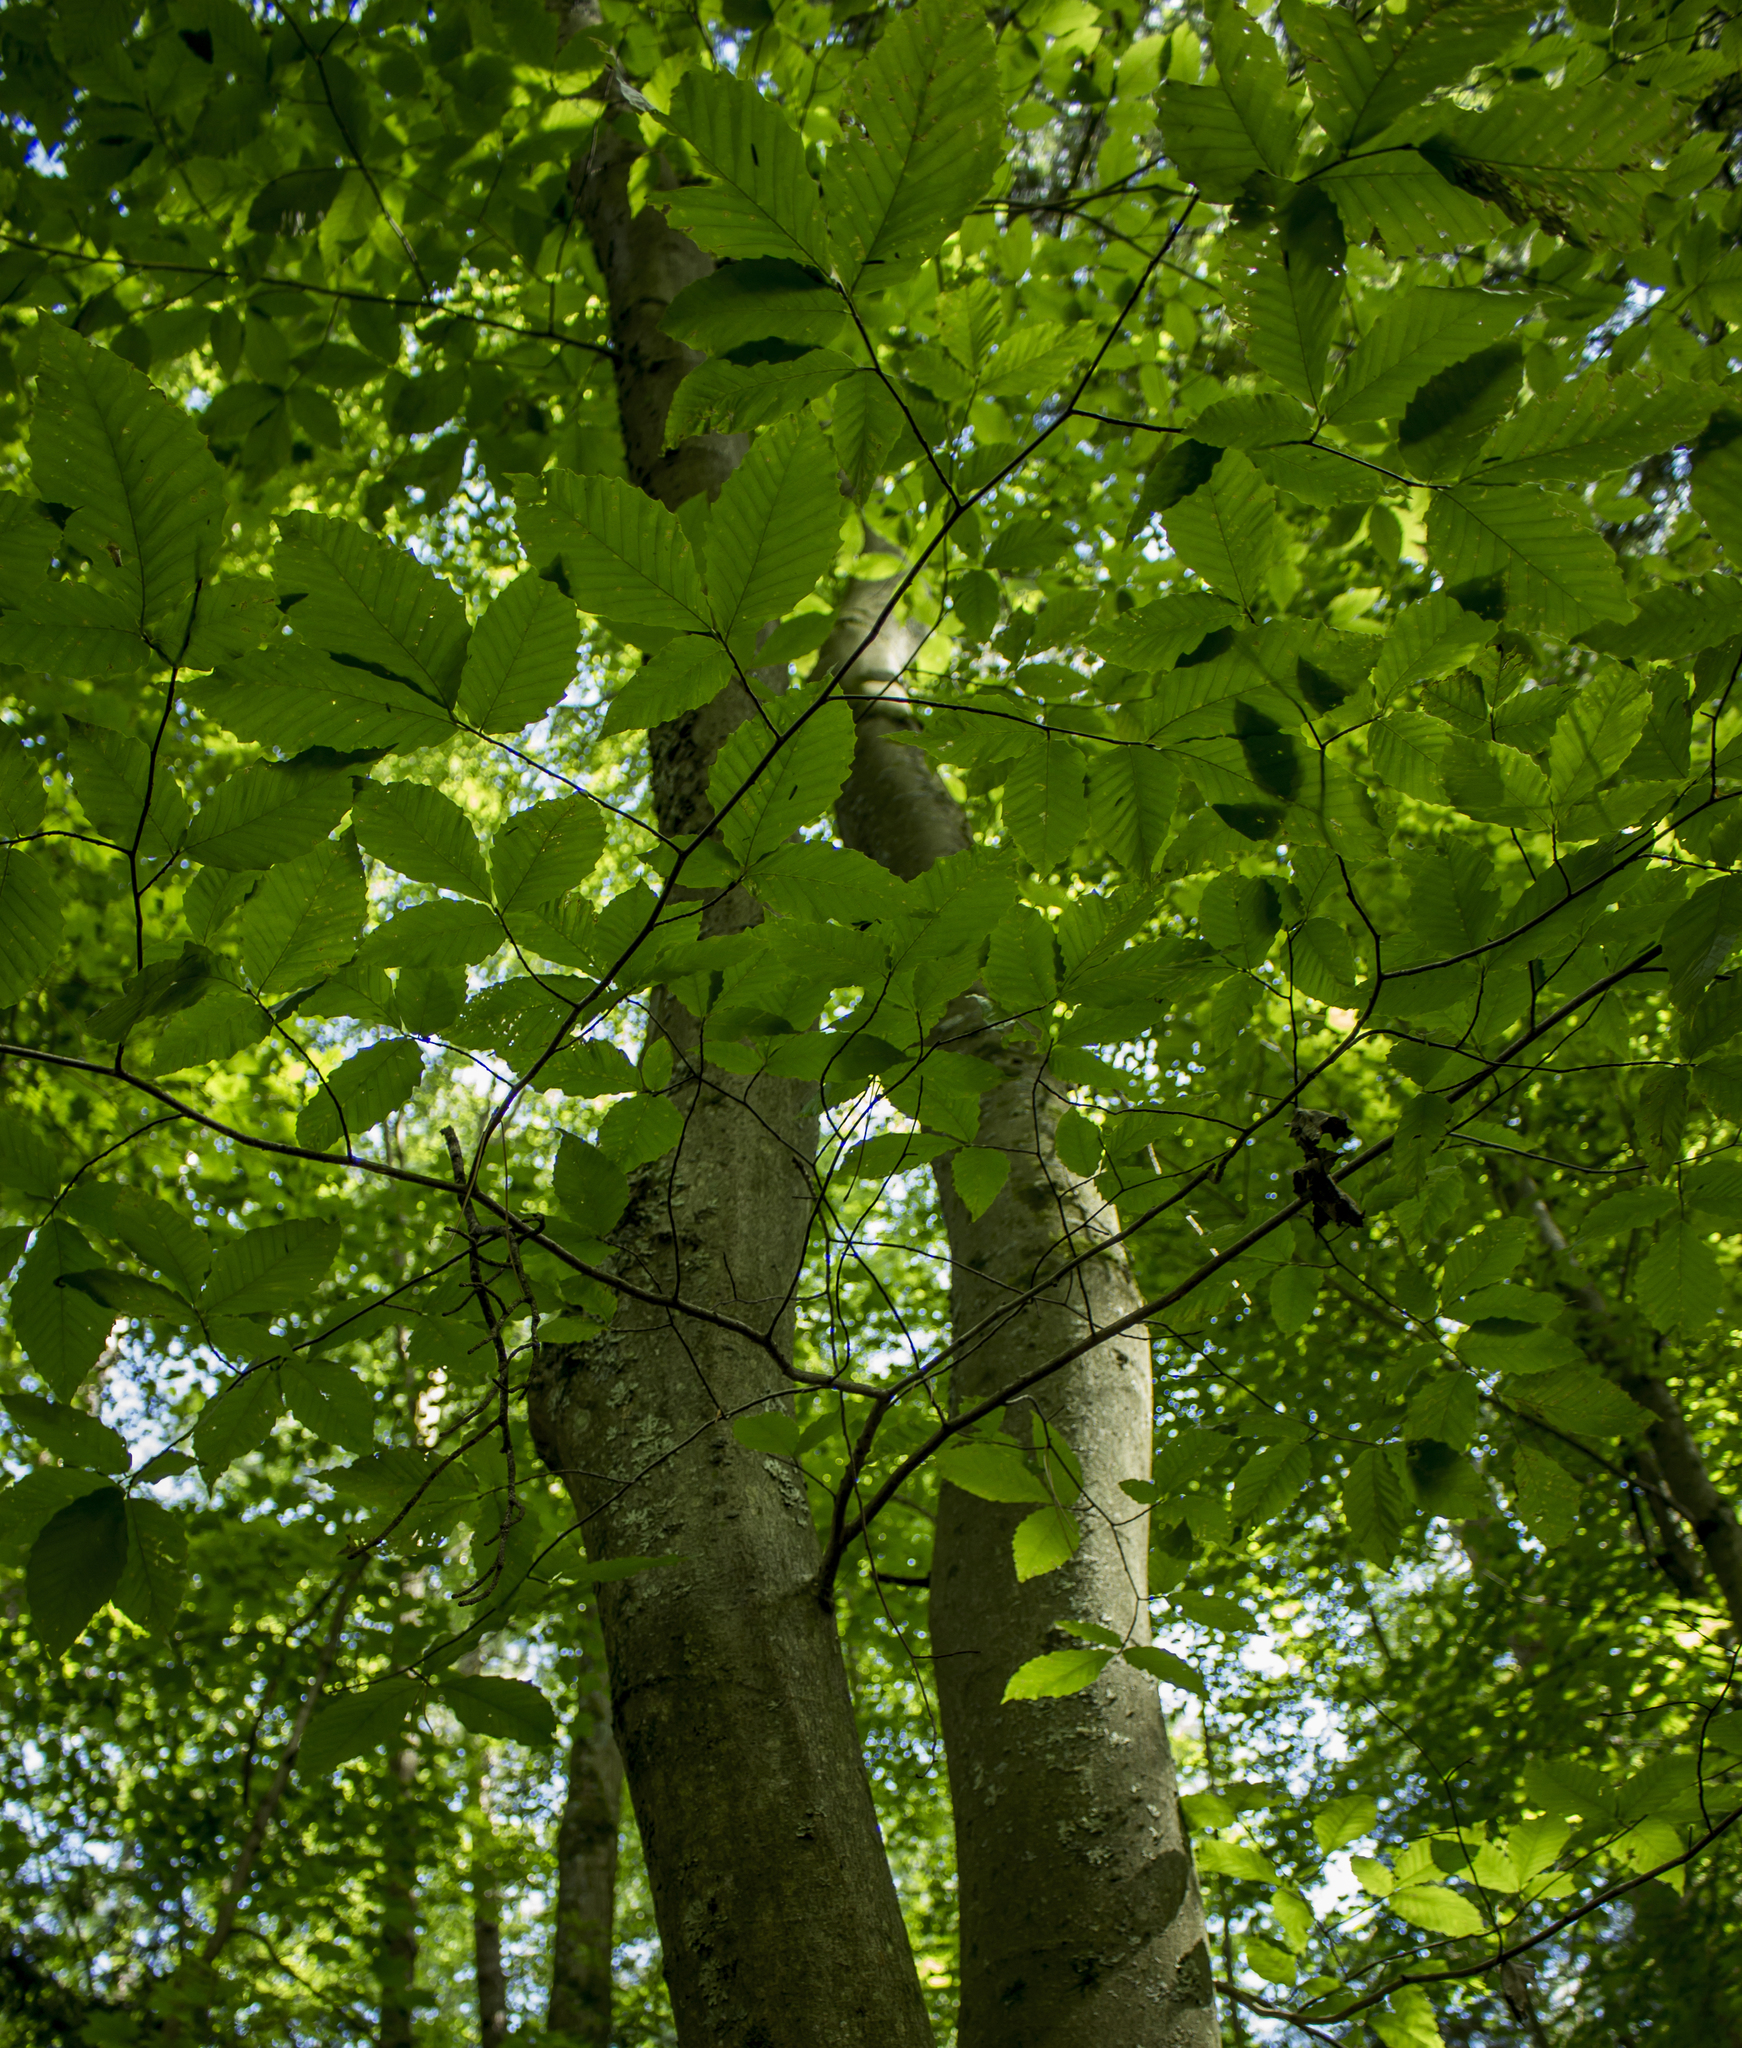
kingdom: Plantae
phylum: Tracheophyta
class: Magnoliopsida
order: Fagales
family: Fagaceae
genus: Fagus
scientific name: Fagus grandifolia
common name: American beech
